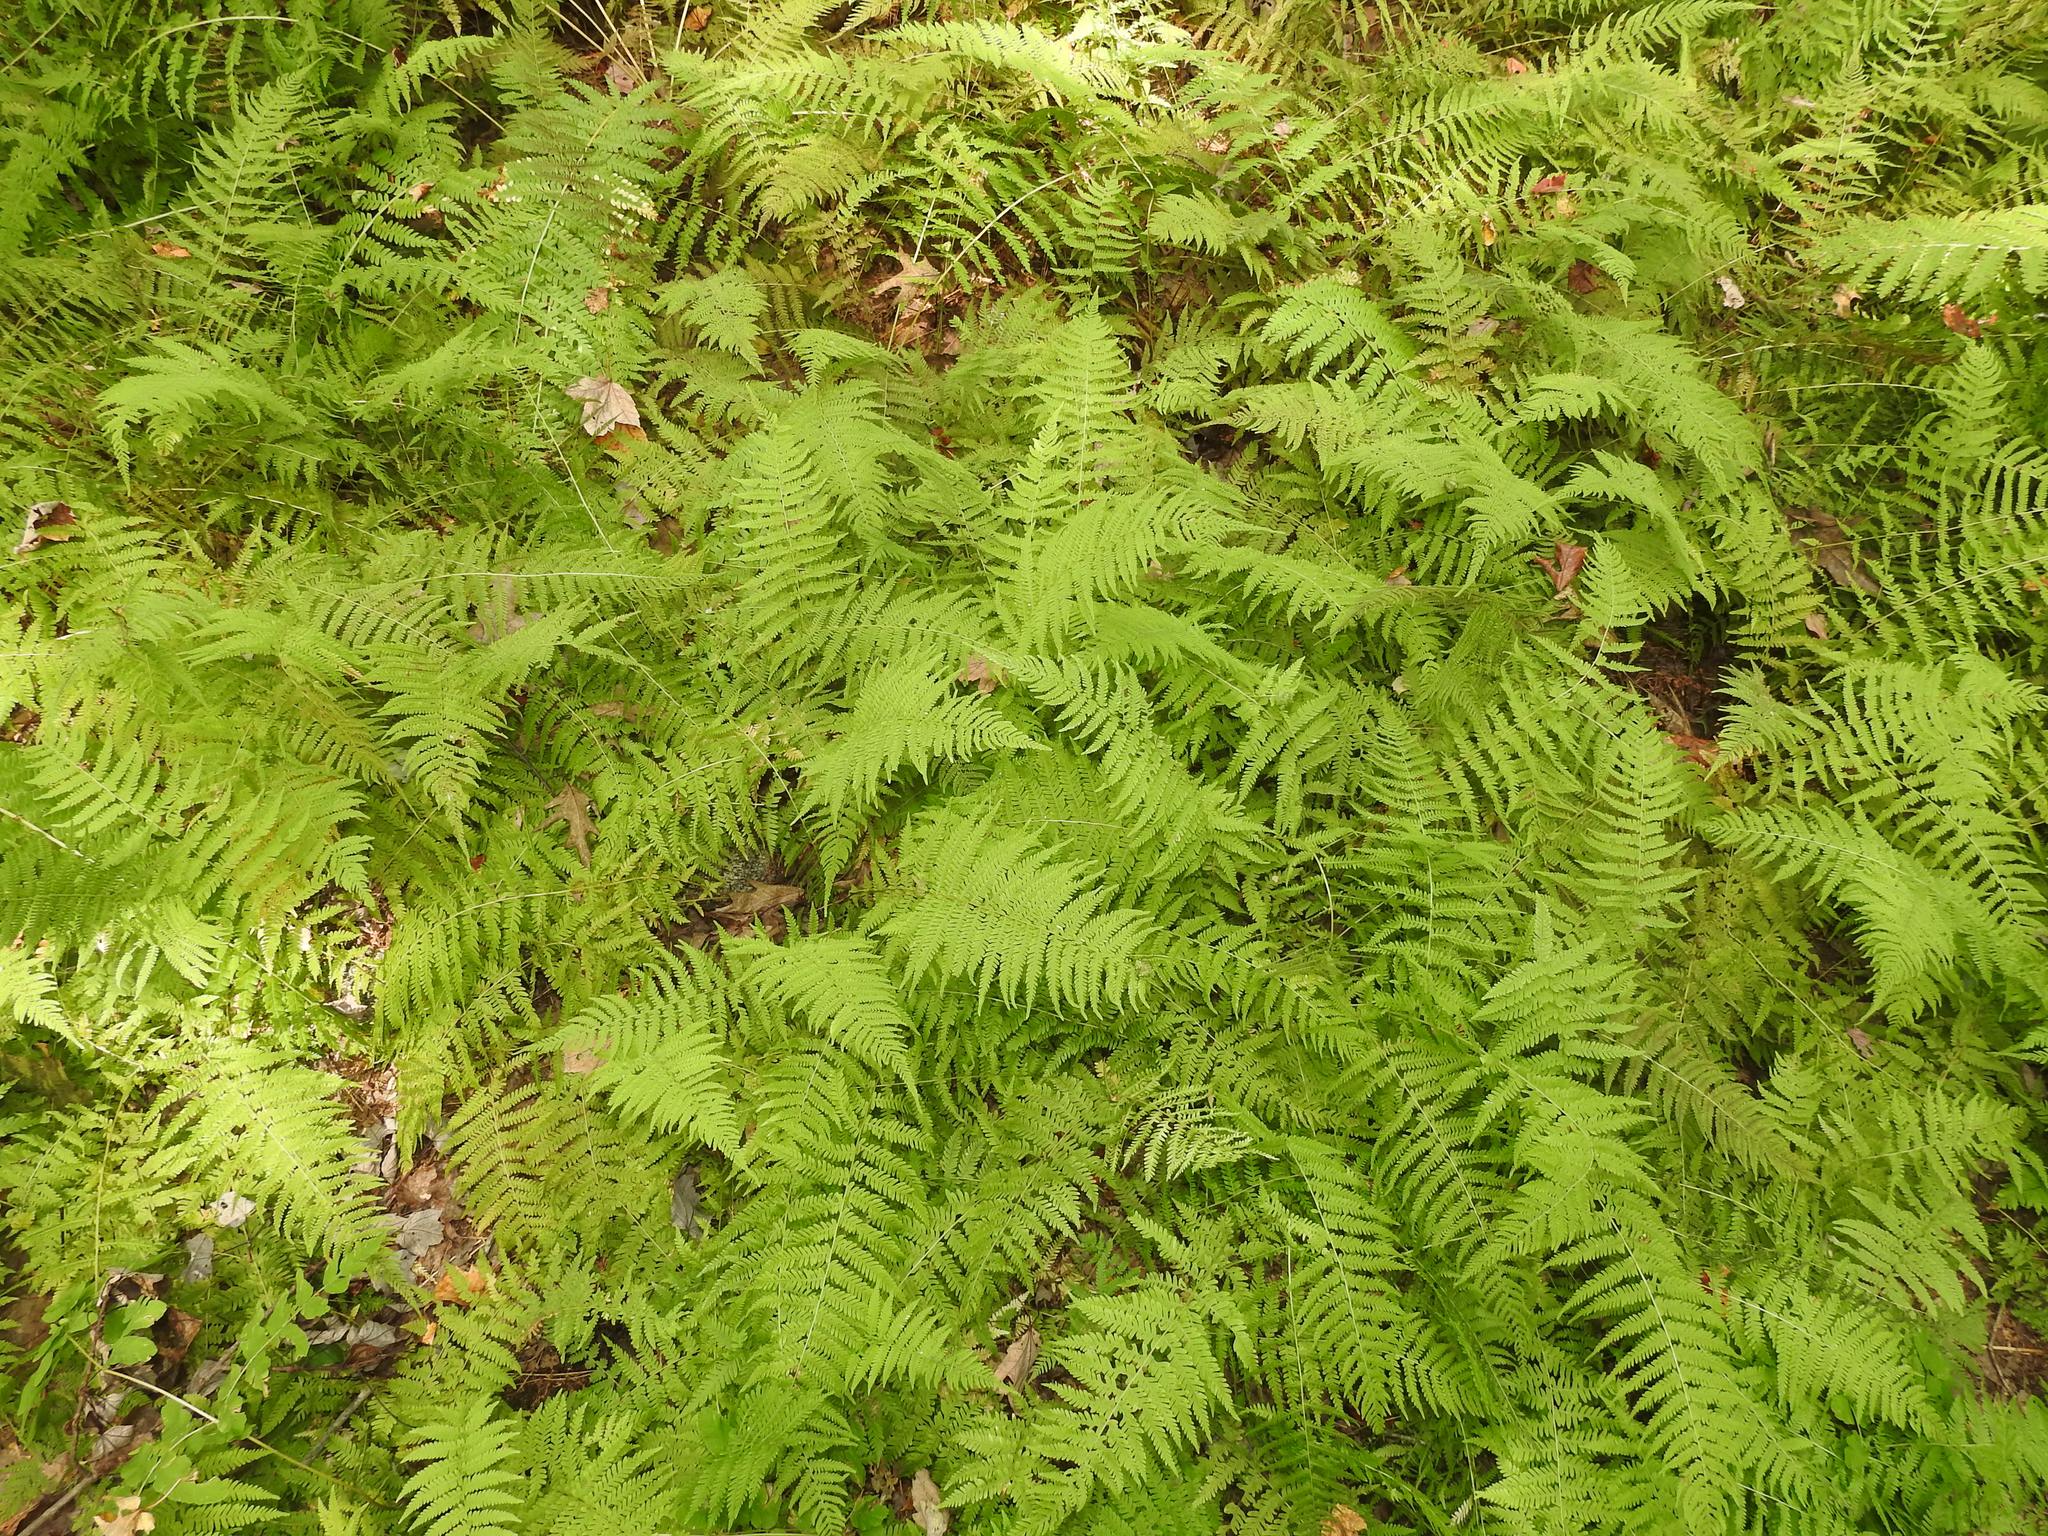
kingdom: Plantae
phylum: Tracheophyta
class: Polypodiopsida
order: Polypodiales
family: Thelypteridaceae
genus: Amauropelta
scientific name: Amauropelta noveboracensis
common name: New york fern
